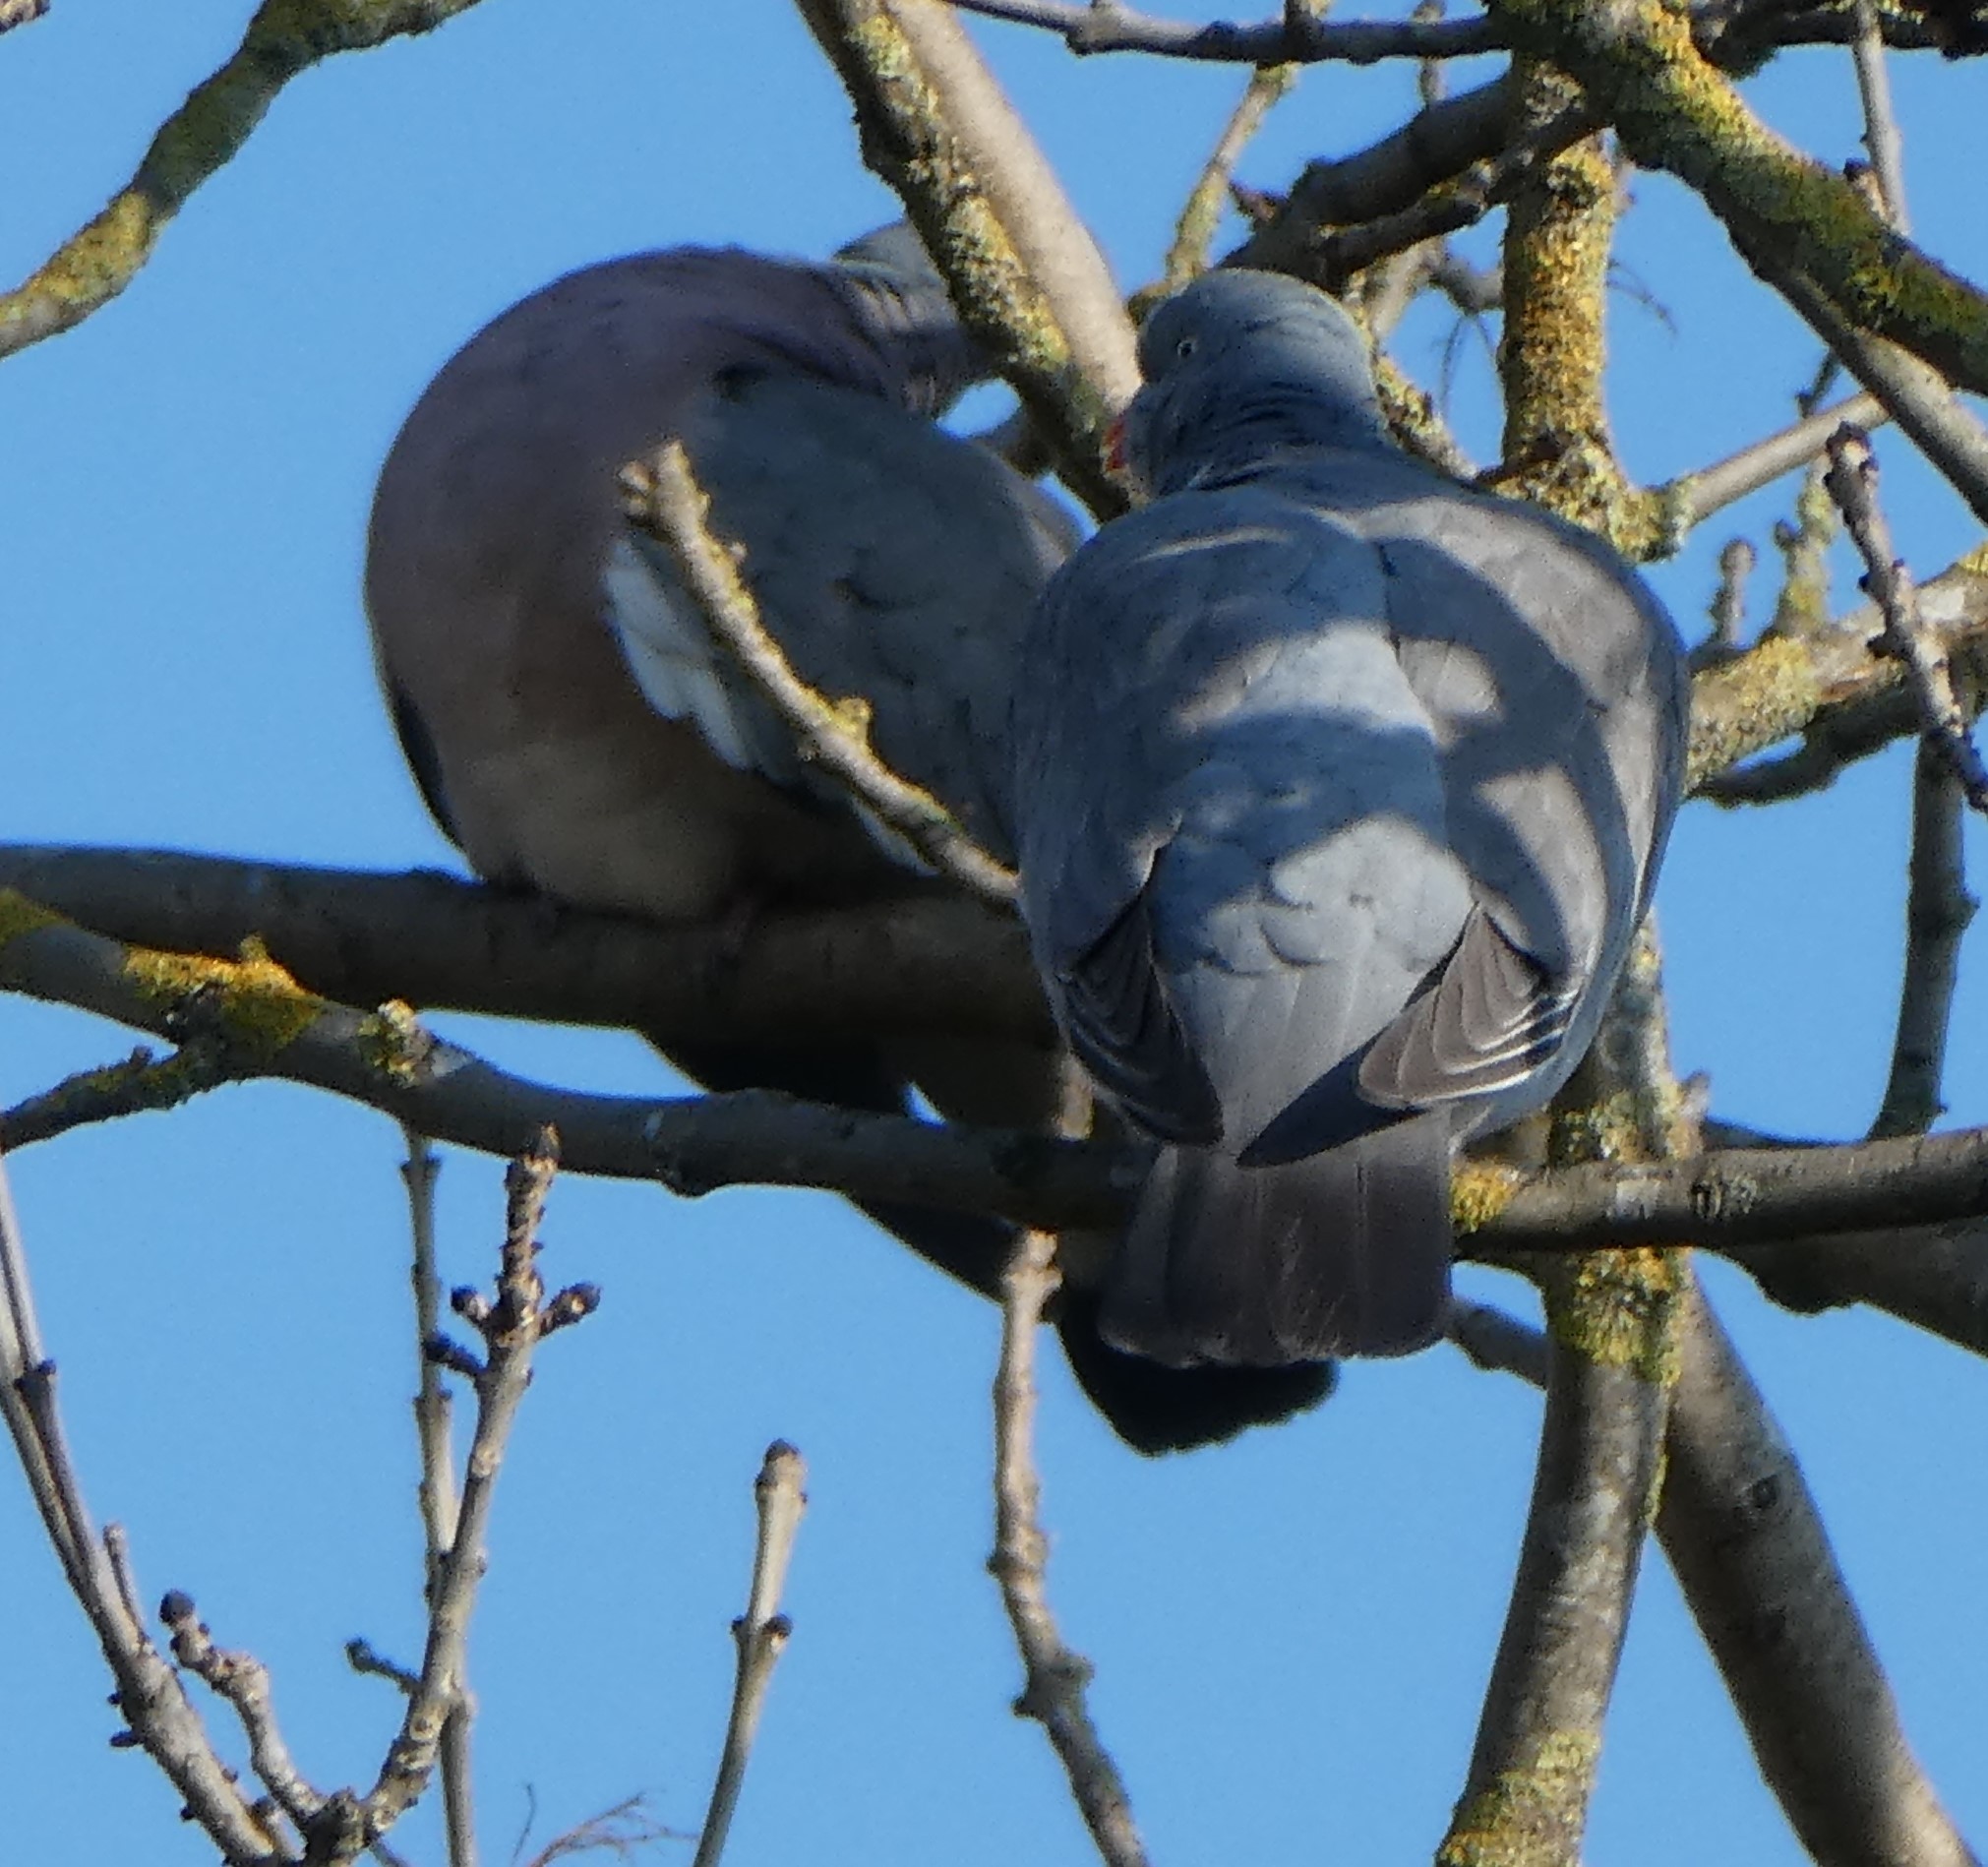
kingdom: Animalia
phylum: Chordata
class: Aves
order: Columbiformes
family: Columbidae
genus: Columba
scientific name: Columba palumbus
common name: Common wood pigeon
